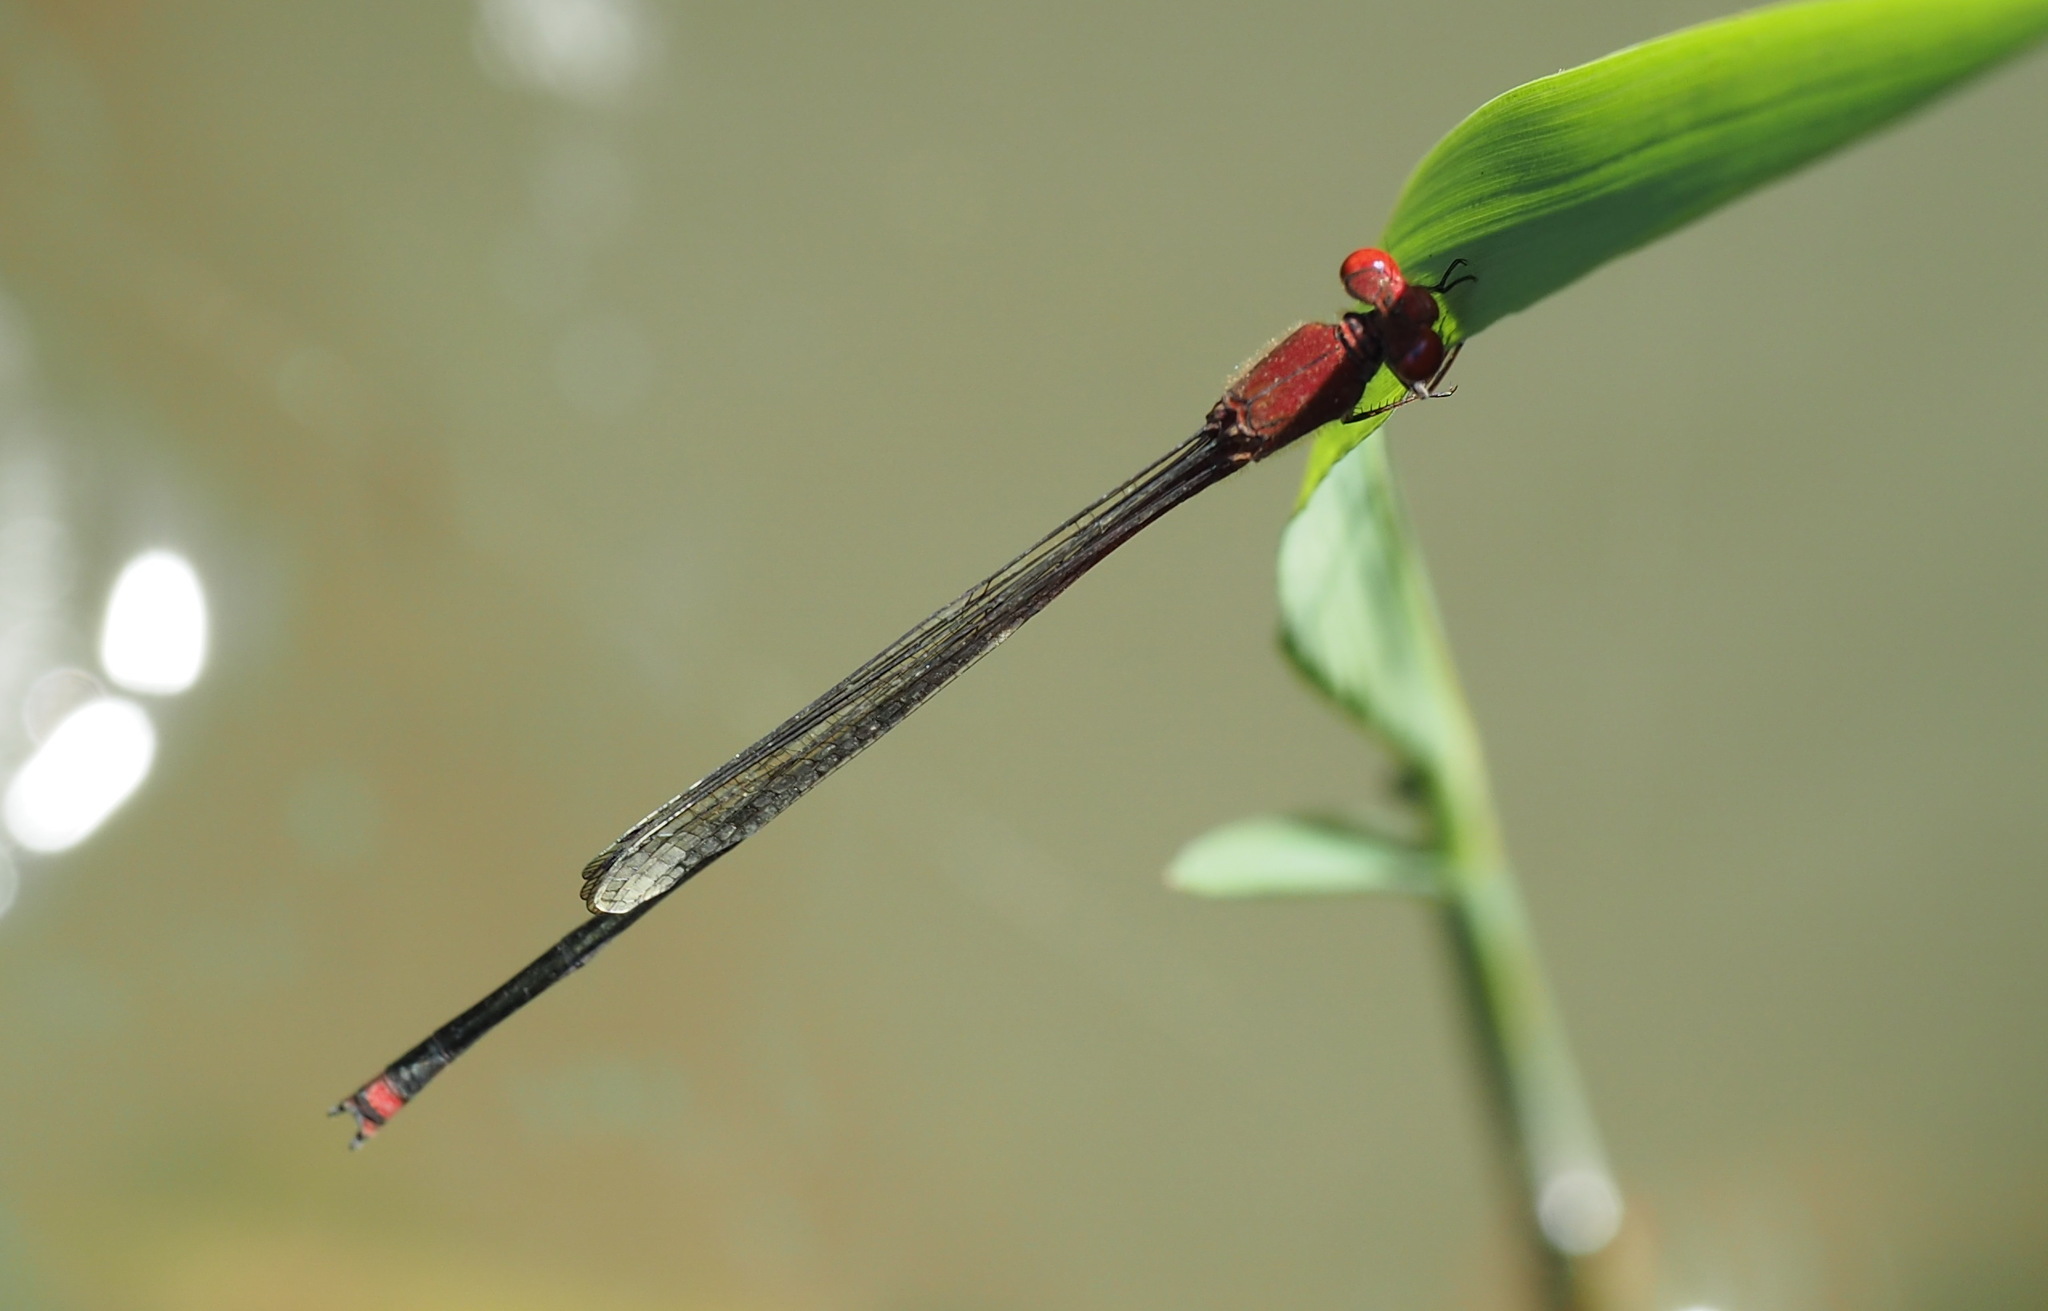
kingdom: Animalia
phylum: Arthropoda
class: Insecta
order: Odonata
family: Coenagrionidae
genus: Pseudagrion
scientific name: Pseudagrion pilidorsum
